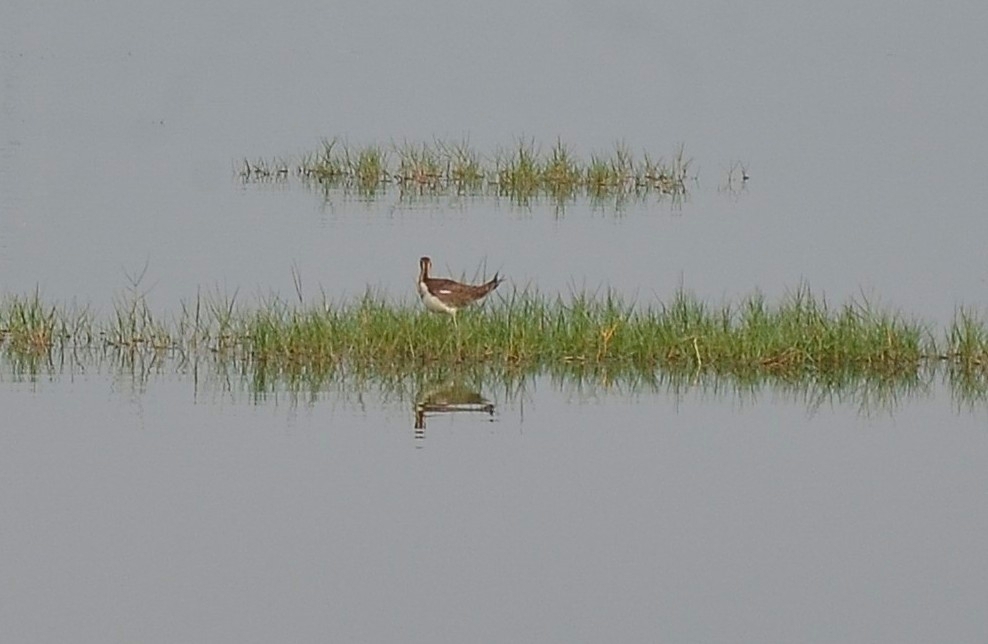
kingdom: Animalia
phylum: Chordata
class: Aves
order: Charadriiformes
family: Jacanidae
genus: Hydrophasianus
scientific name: Hydrophasianus chirurgus
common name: Pheasant-tailed jacana
